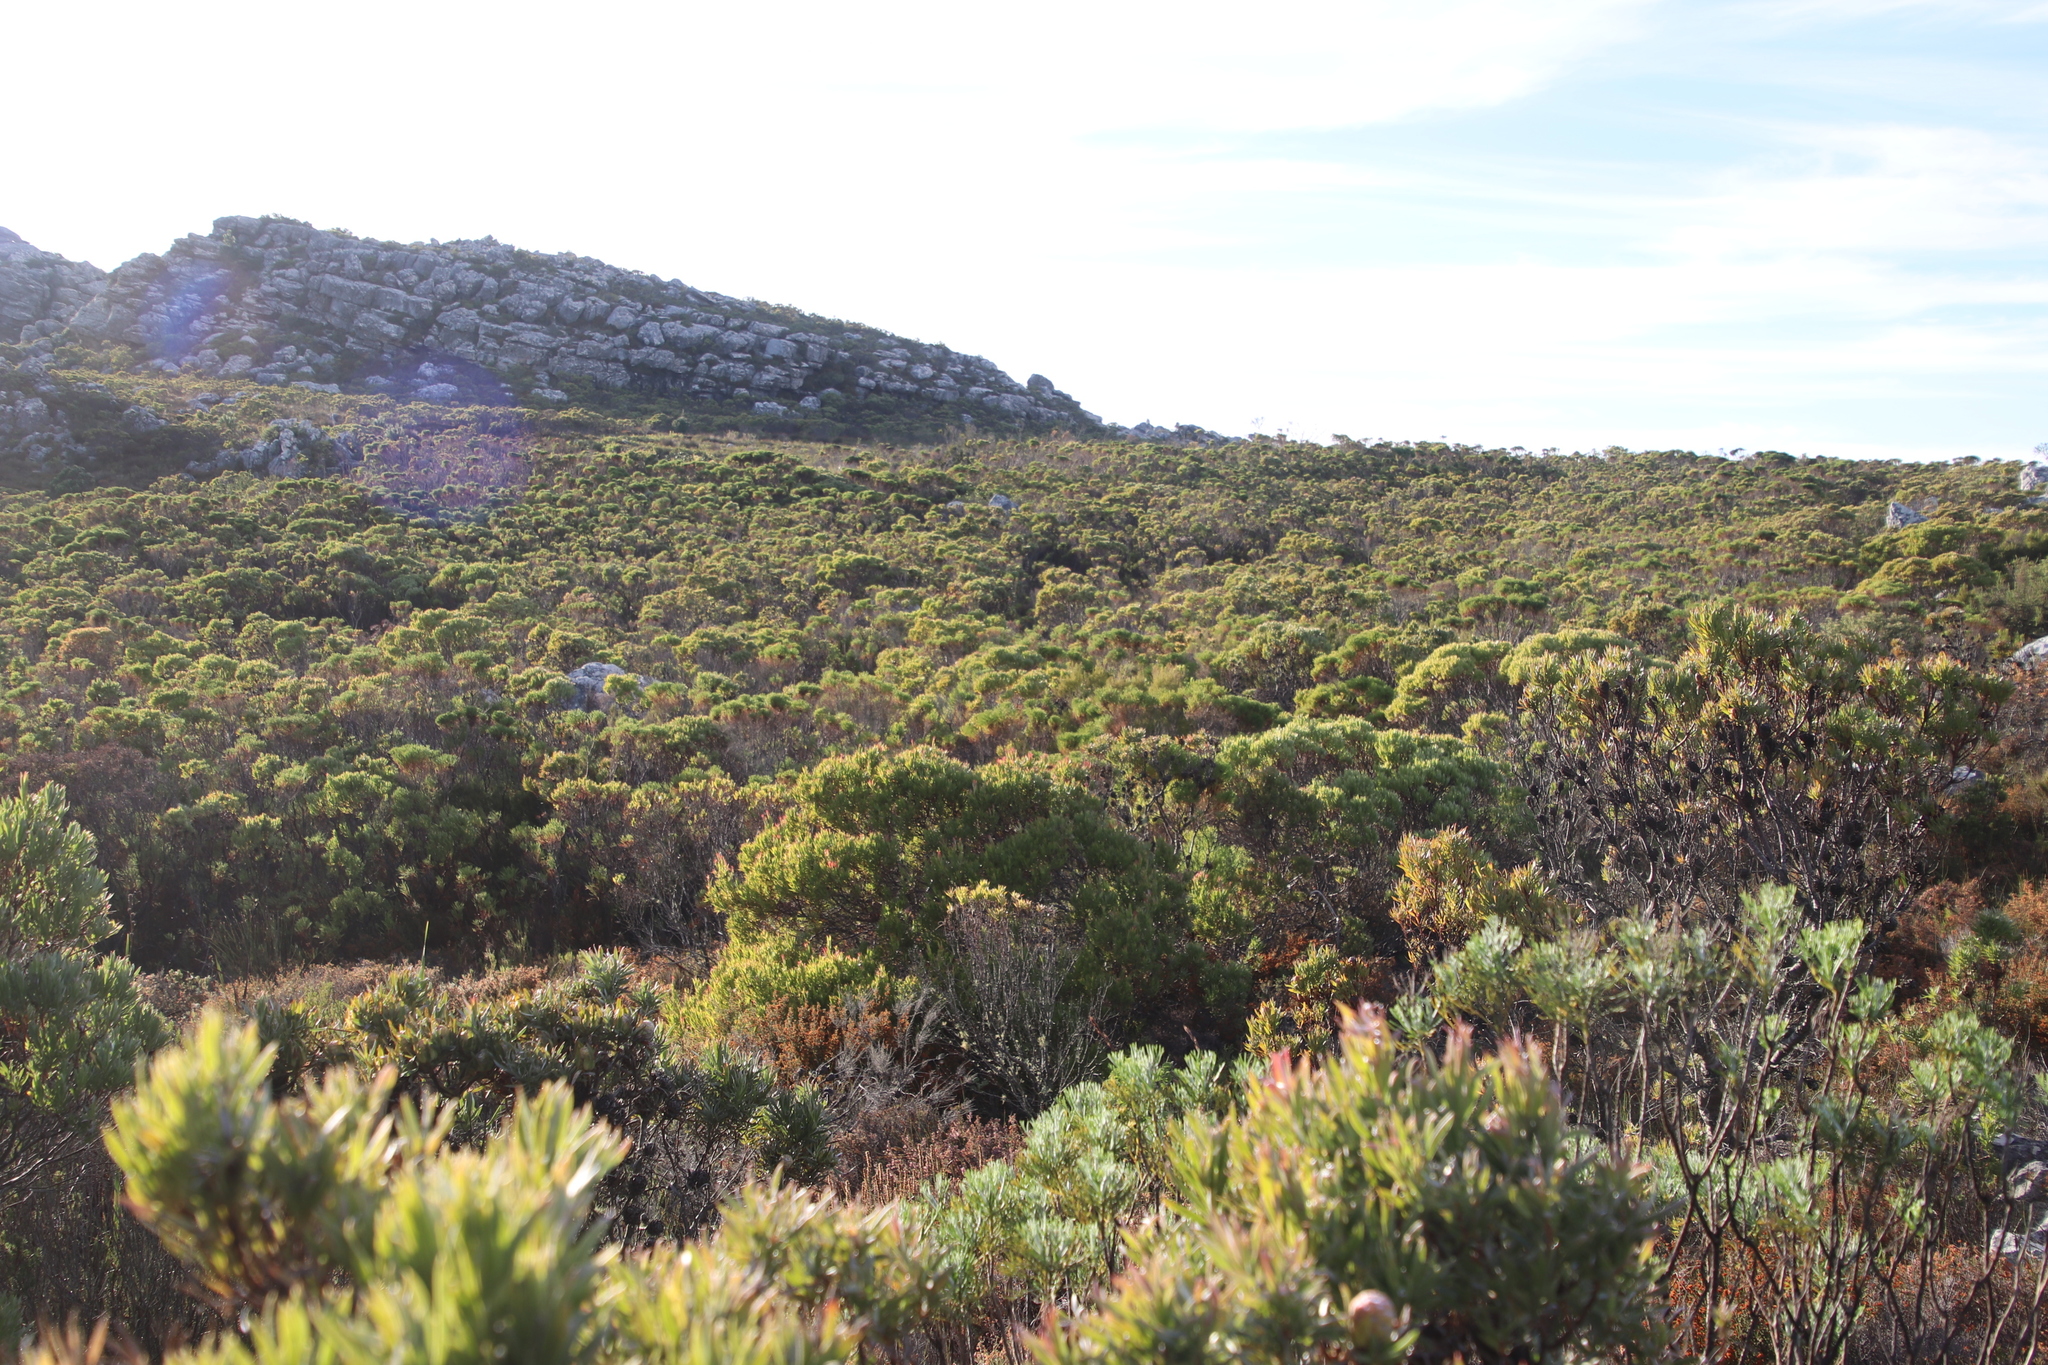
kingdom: Plantae
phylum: Tracheophyta
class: Magnoliopsida
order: Proteales
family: Proteaceae
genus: Leucadendron
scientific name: Leucadendron xanthoconus
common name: Sickle-leaf conebush
